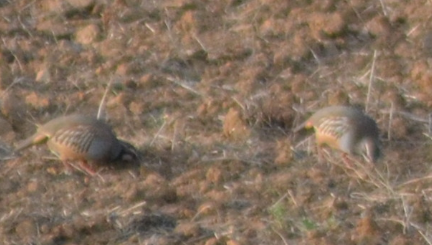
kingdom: Animalia
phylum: Chordata
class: Aves
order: Galliformes
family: Phasianidae
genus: Alectoris
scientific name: Alectoris rufa
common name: Red-legged partridge
